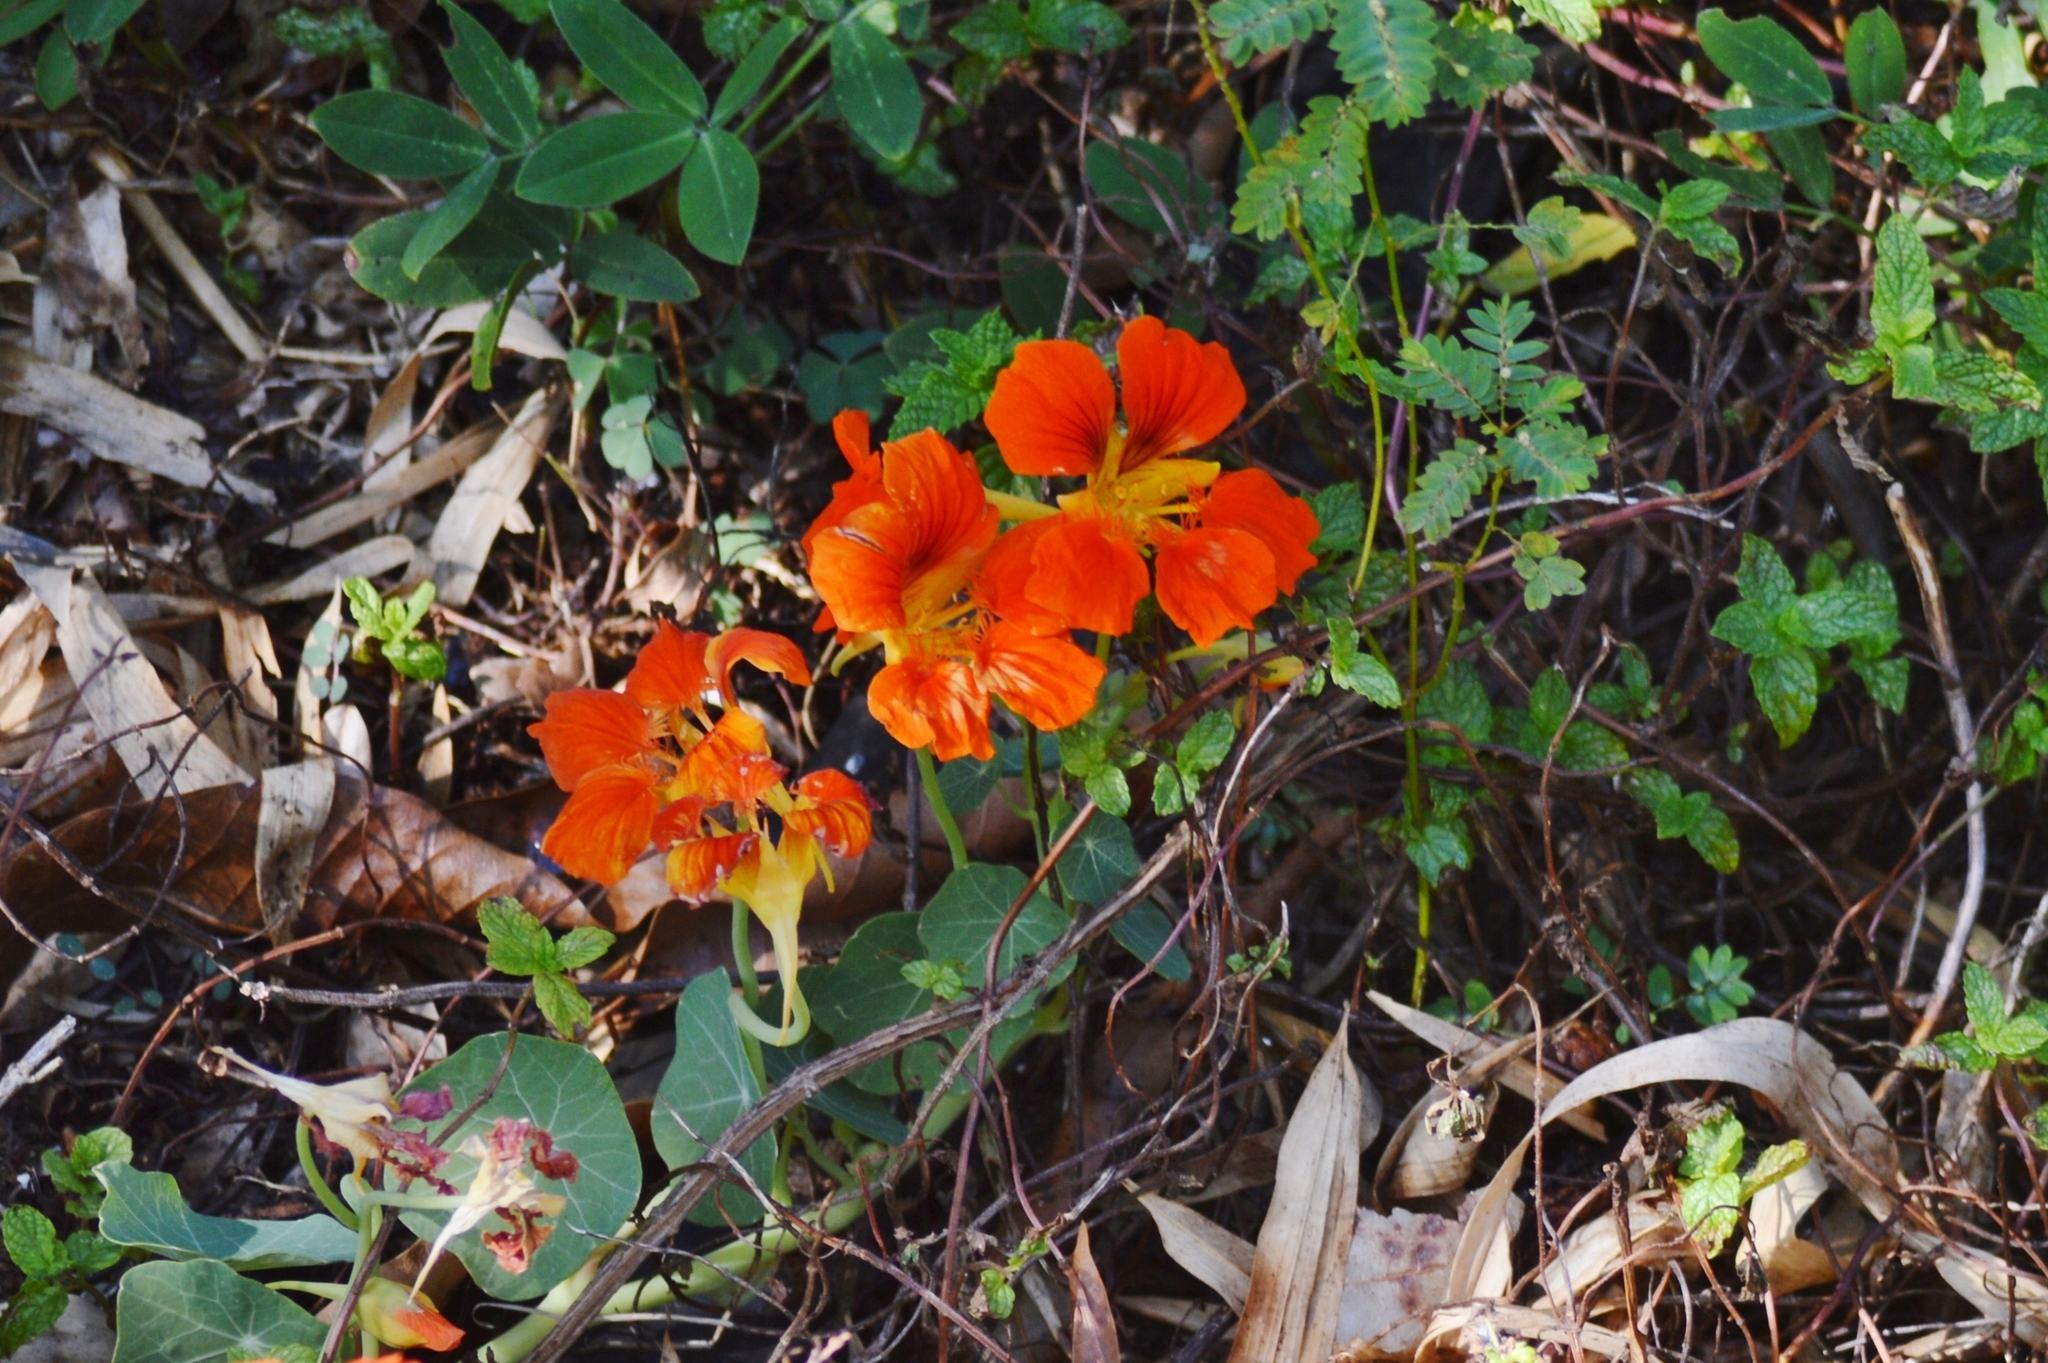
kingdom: Plantae
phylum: Tracheophyta
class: Magnoliopsida
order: Brassicales
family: Tropaeolaceae
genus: Tropaeolum
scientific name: Tropaeolum majus
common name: Nasturtium
